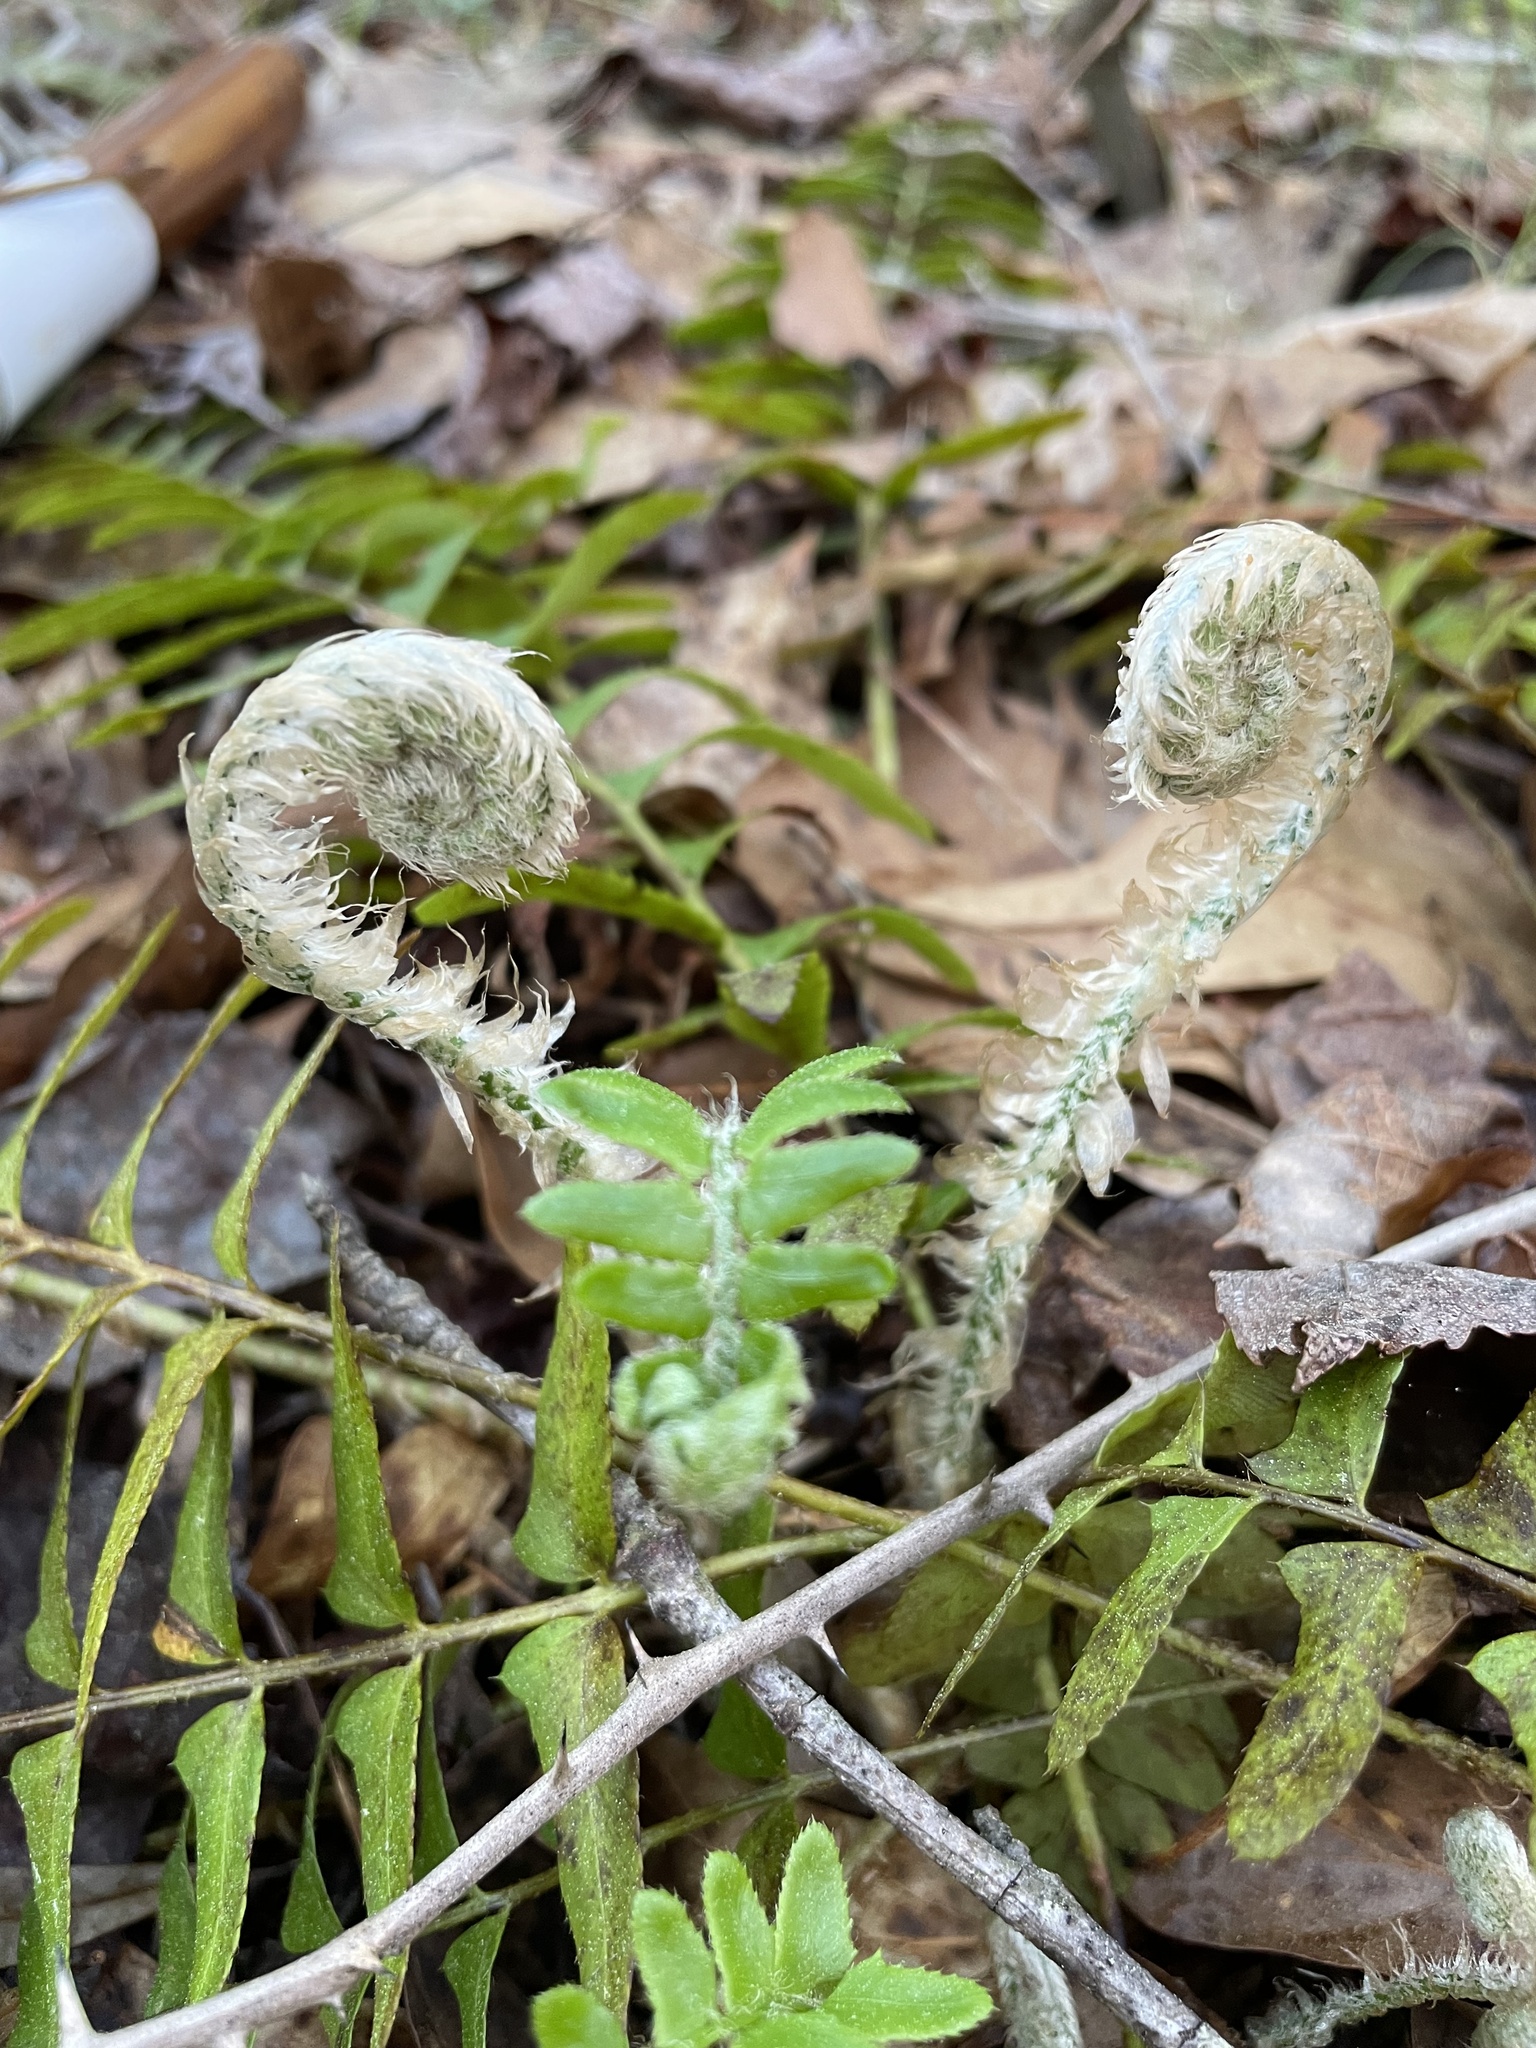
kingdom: Plantae
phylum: Tracheophyta
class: Polypodiopsida
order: Polypodiales
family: Dryopteridaceae
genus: Polystichum
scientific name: Polystichum acrostichoides
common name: Christmas fern
